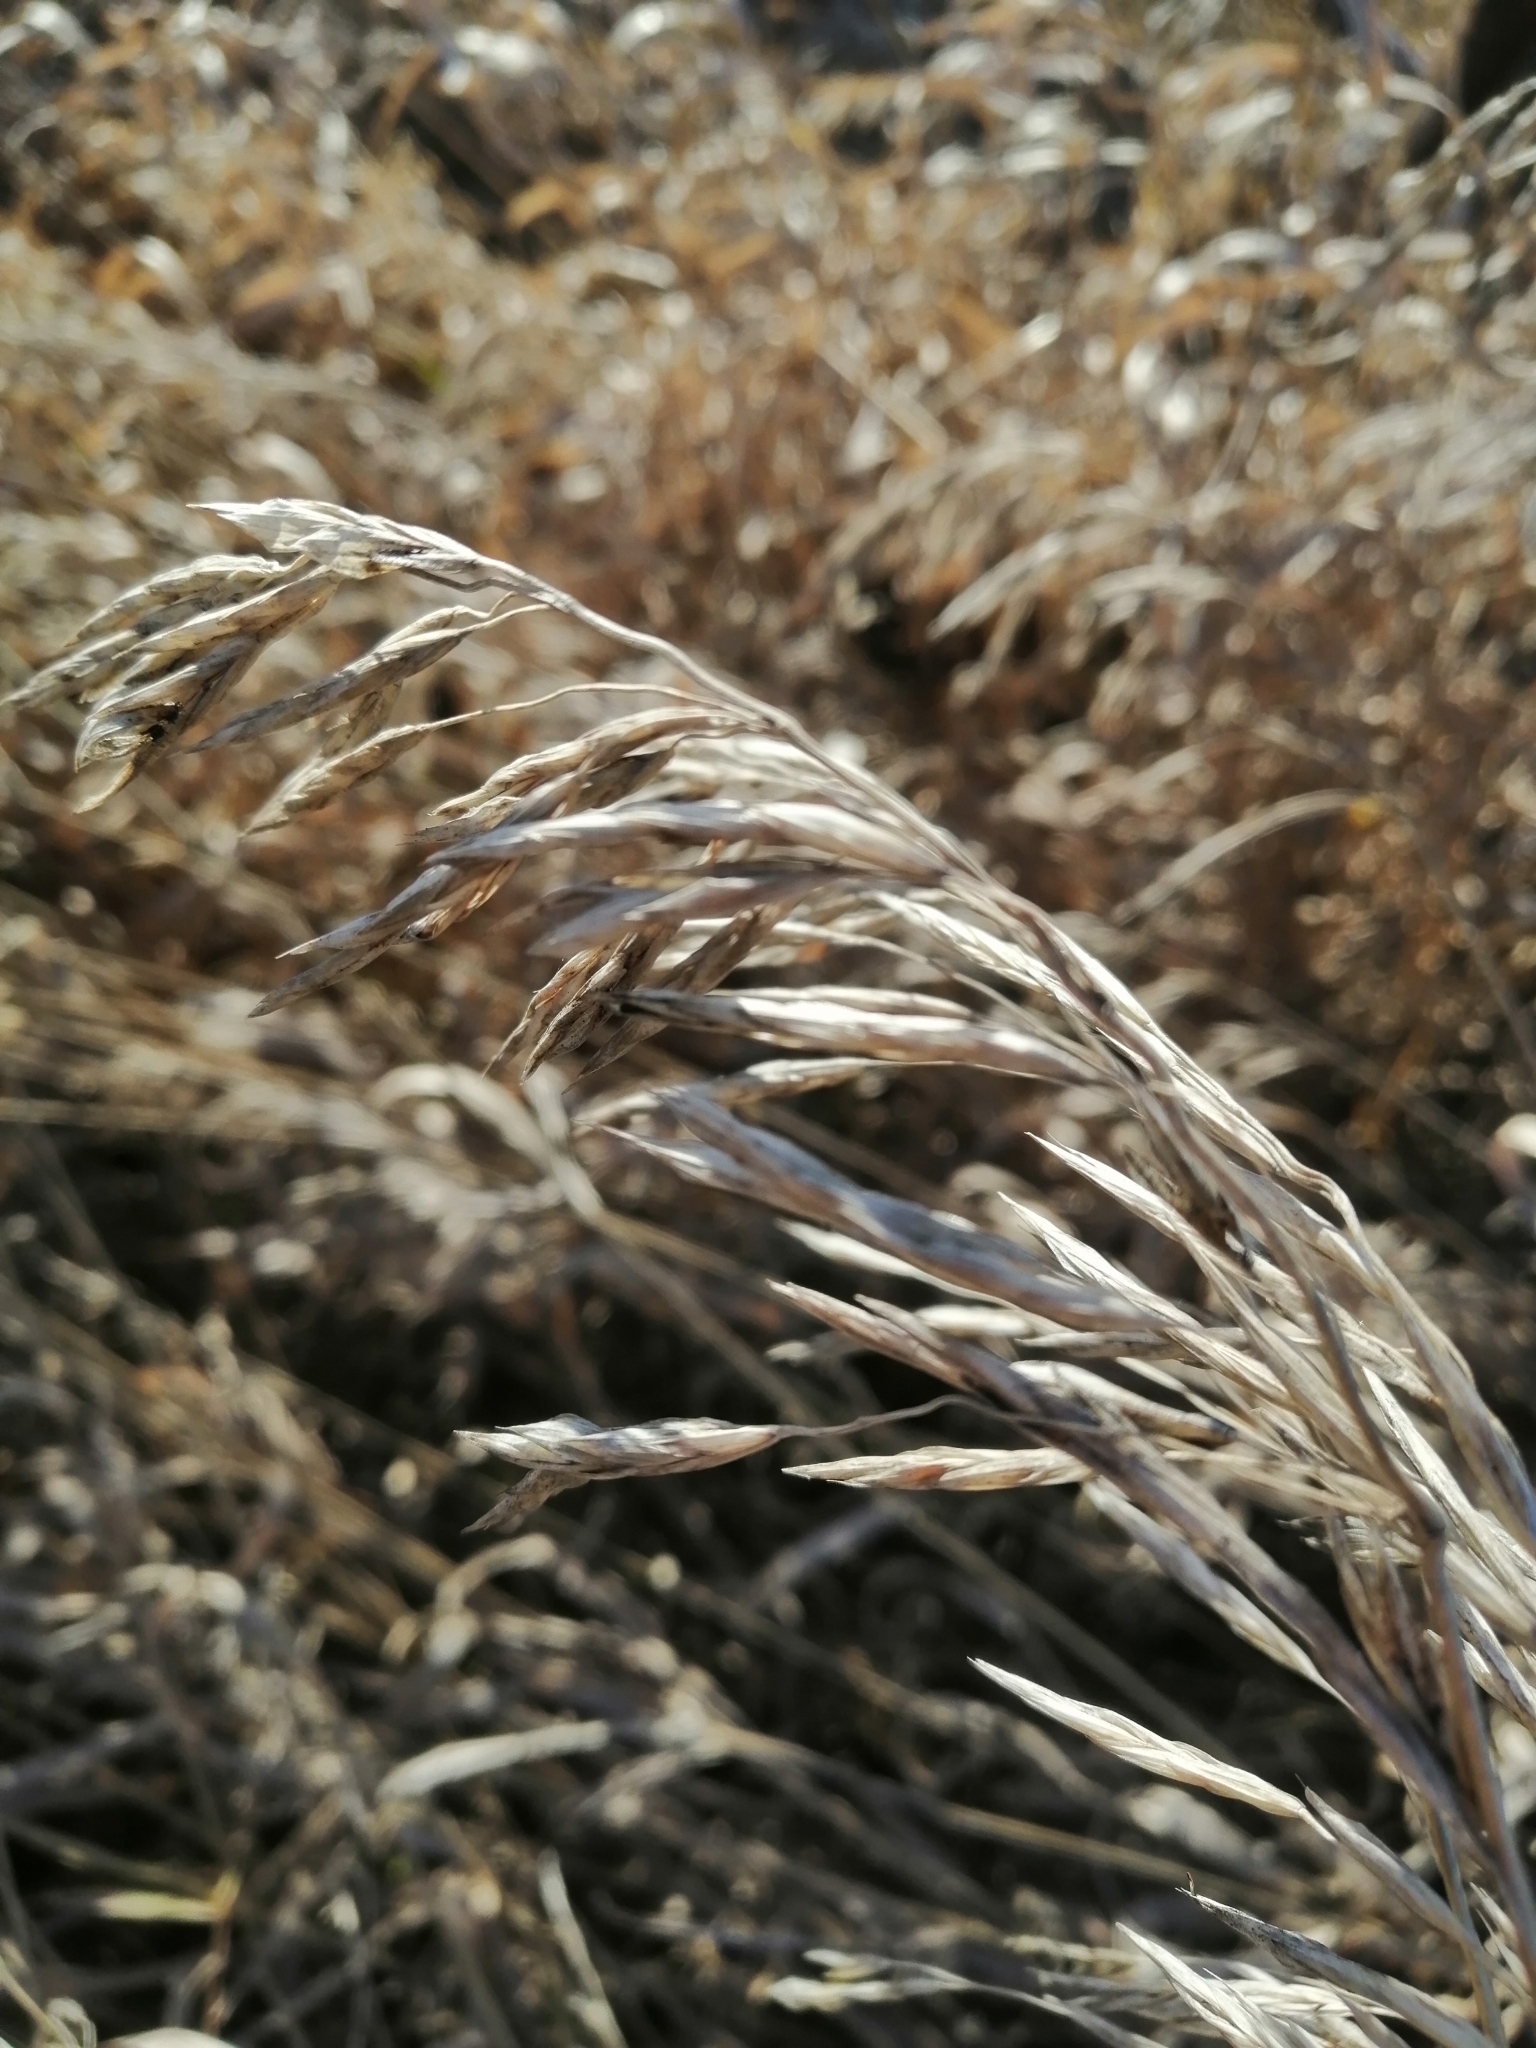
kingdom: Plantae
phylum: Tracheophyta
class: Liliopsida
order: Poales
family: Poaceae
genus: Bromus
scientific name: Bromus inermis
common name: Smooth brome
